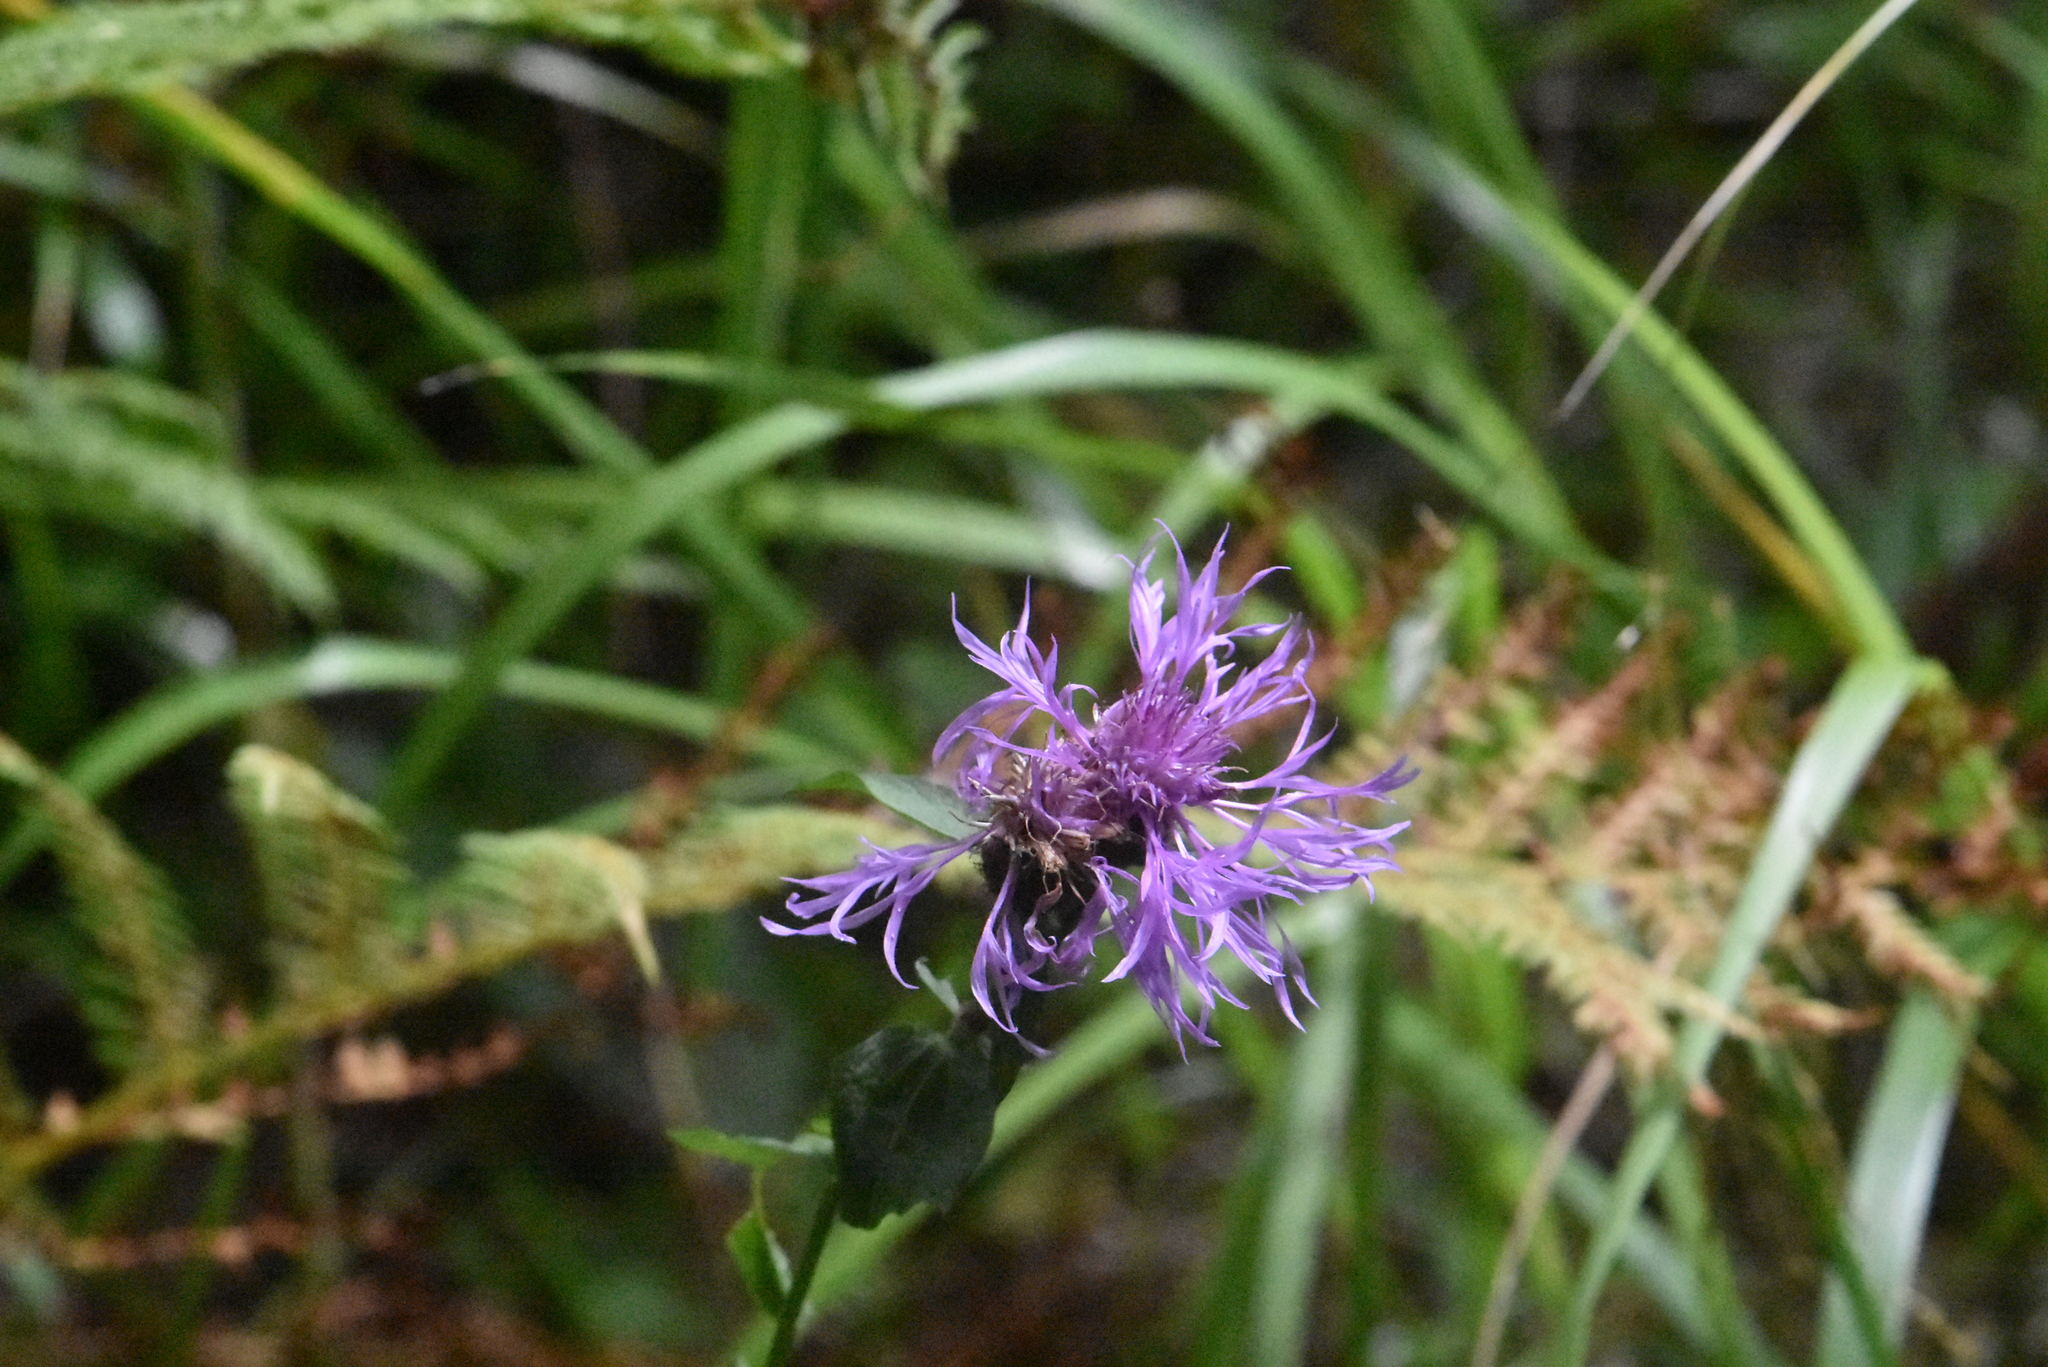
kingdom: Plantae
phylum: Tracheophyta
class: Magnoliopsida
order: Asterales
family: Asteraceae
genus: Centaurea
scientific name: Centaurea phrygia
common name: Wig knapweed
